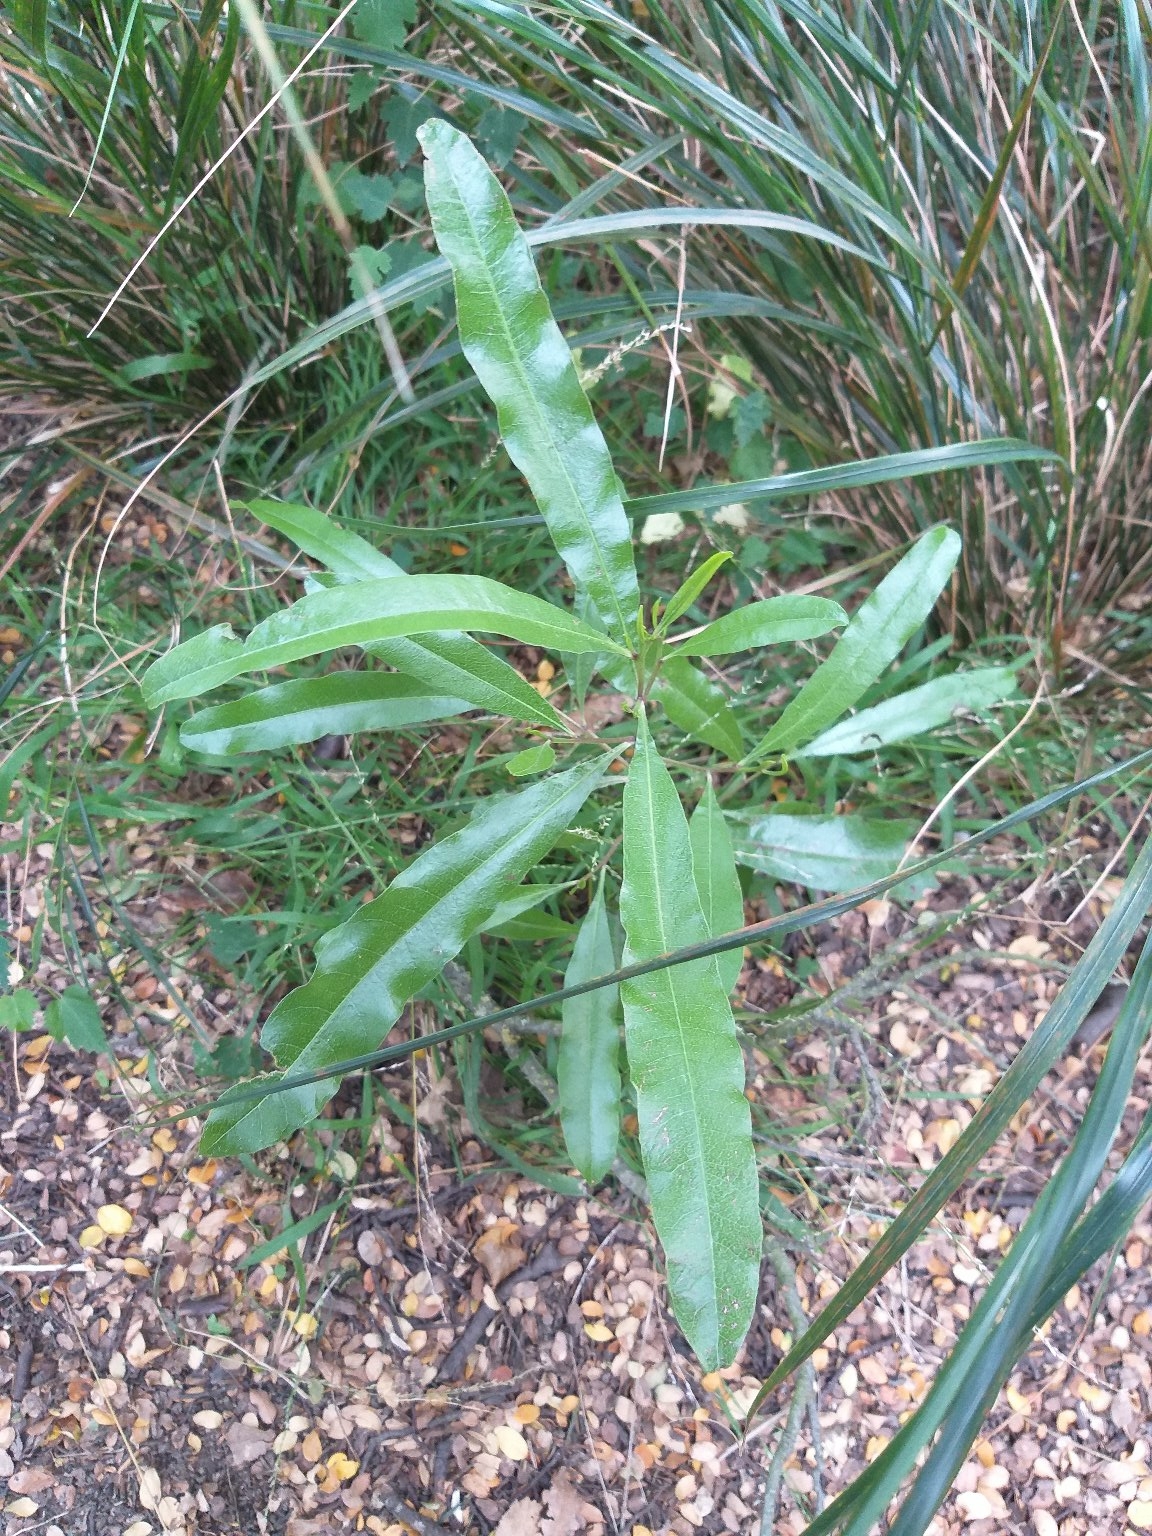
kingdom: Plantae
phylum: Tracheophyta
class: Magnoliopsida
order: Sapindales
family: Sapindaceae
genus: Dodonaea
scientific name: Dodonaea viscosa
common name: Hopbush
